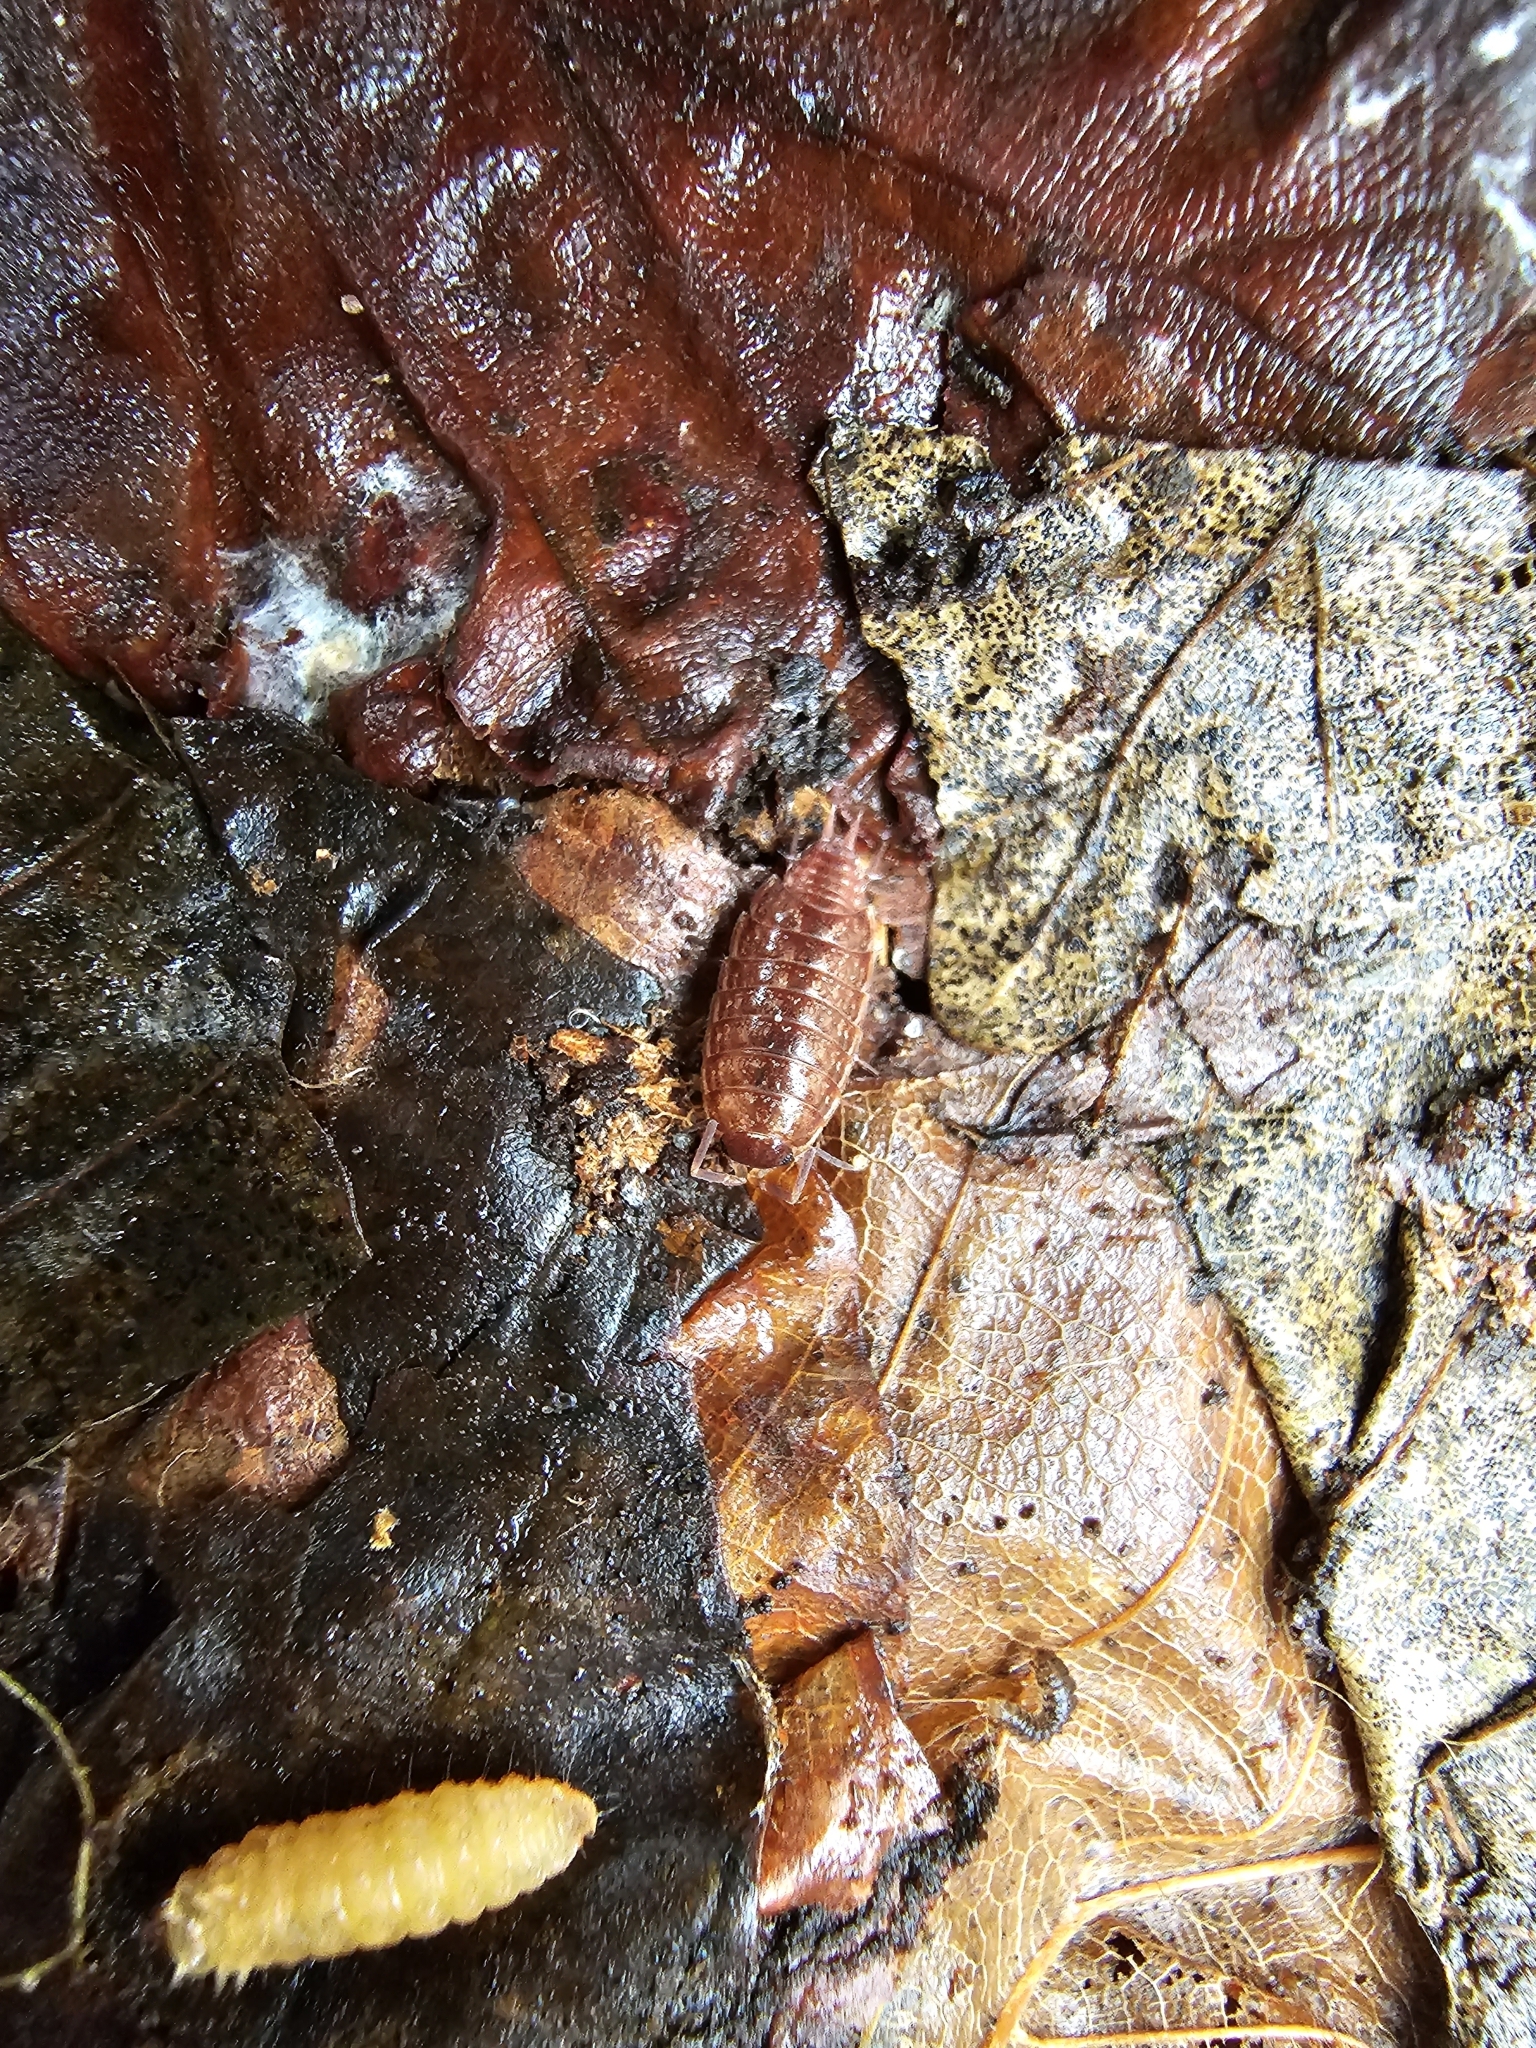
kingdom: Animalia
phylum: Arthropoda
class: Malacostraca
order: Isopoda
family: Philosciidae
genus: Philoscia
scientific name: Philoscia muscorum
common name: Common striped woodlouse
